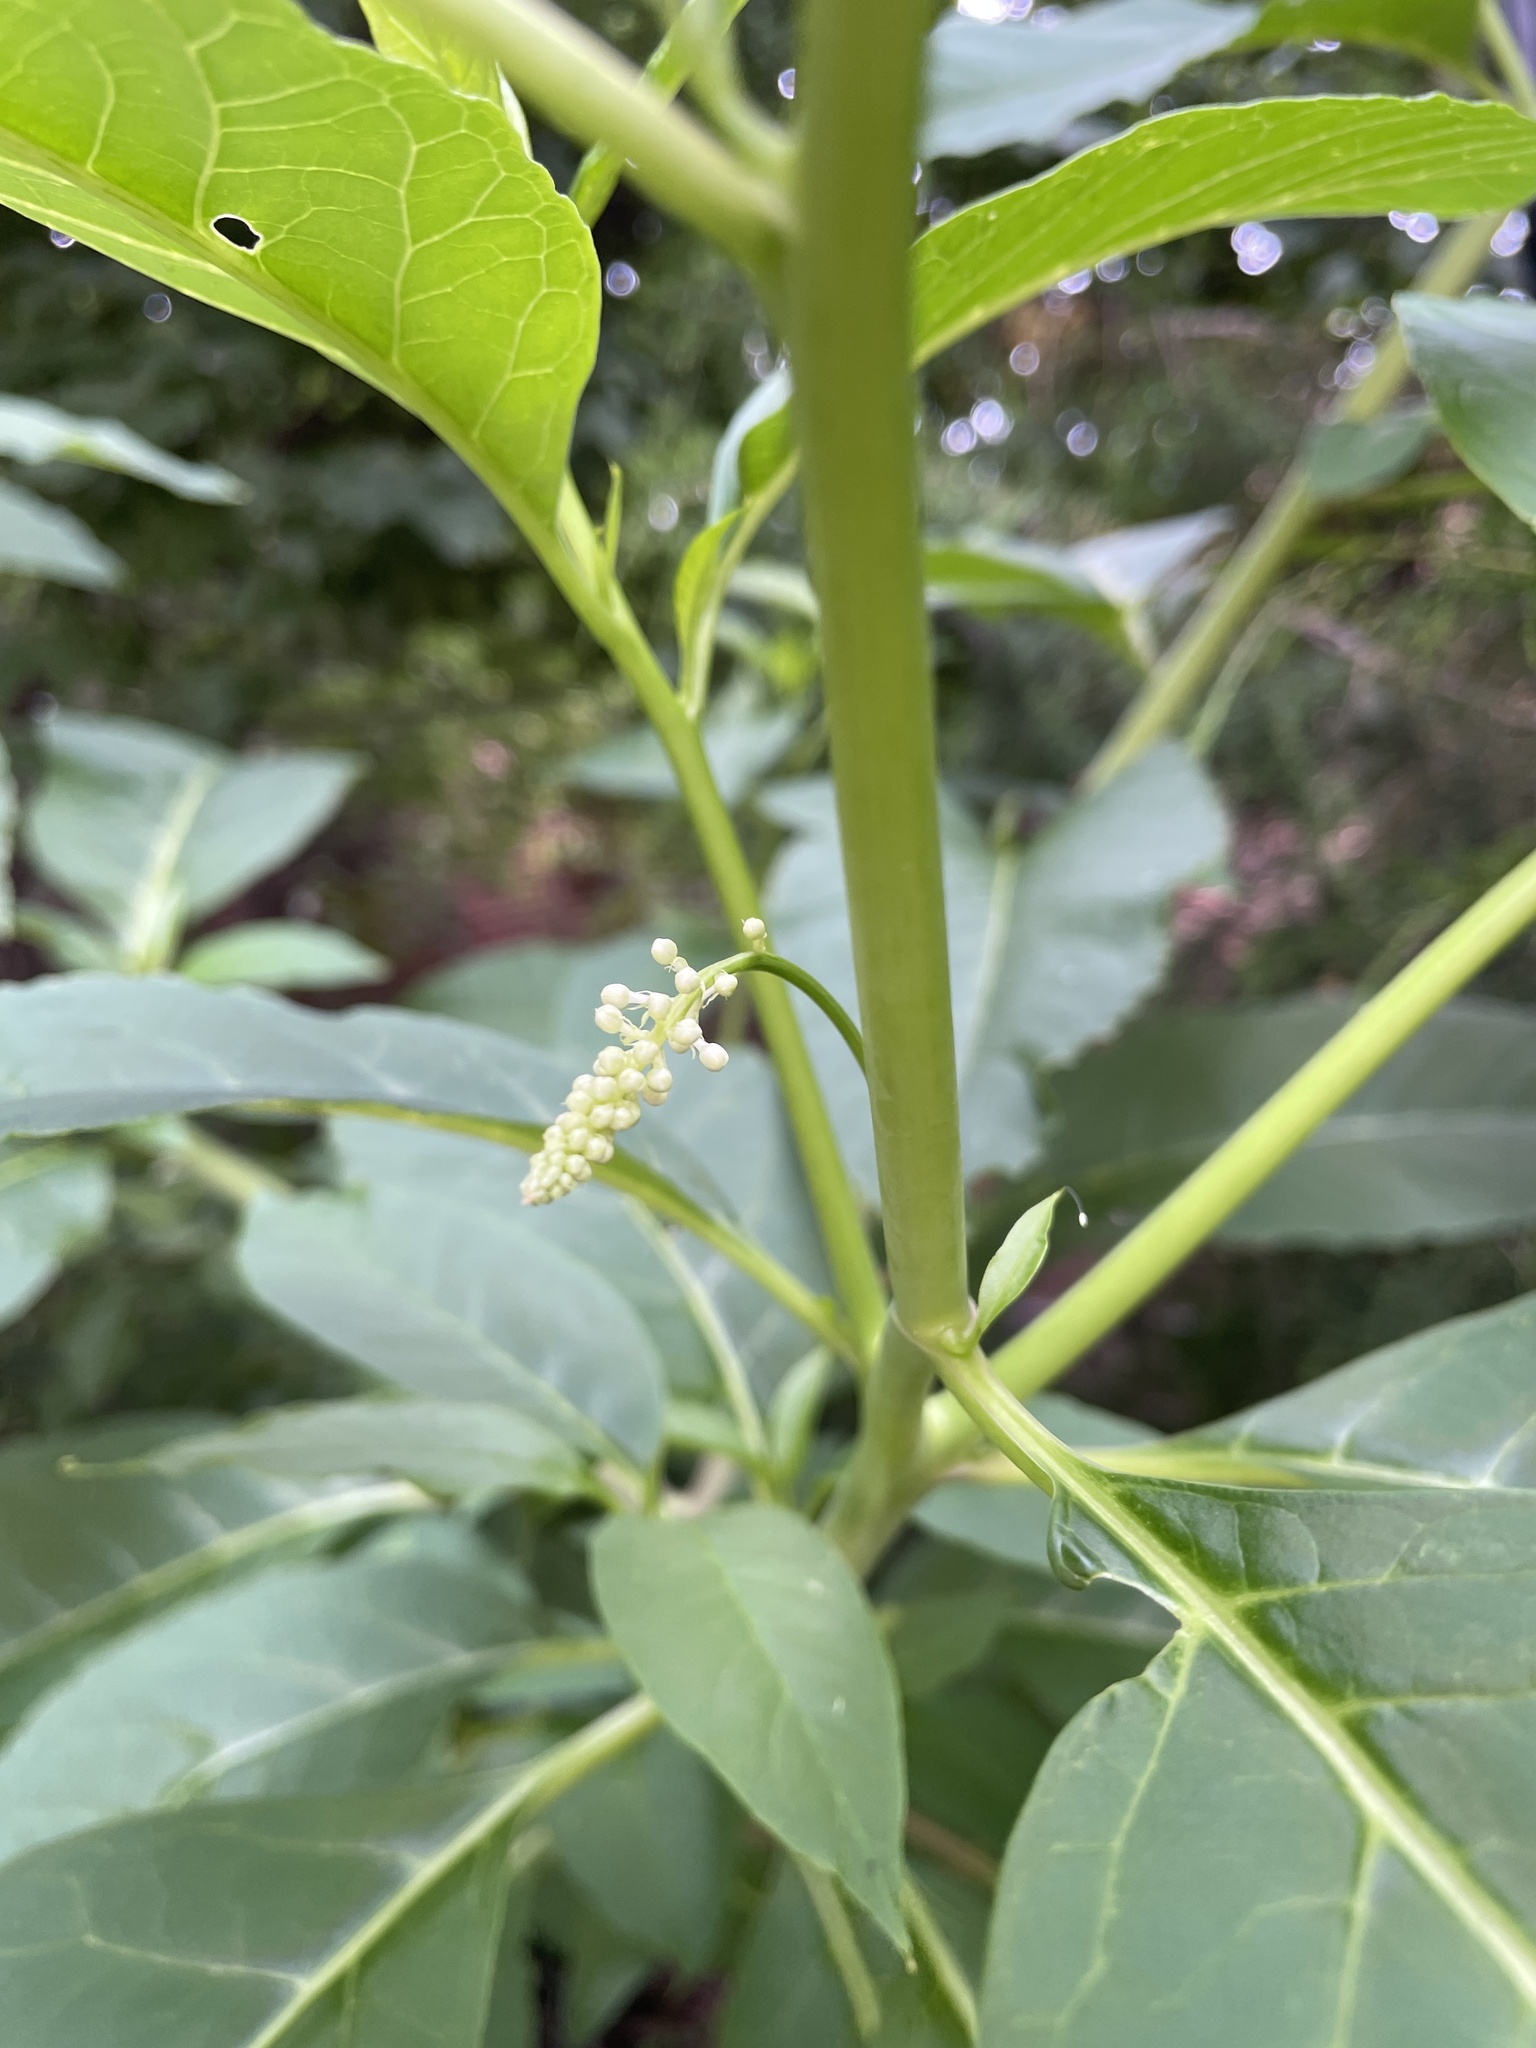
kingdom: Plantae
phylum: Tracheophyta
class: Magnoliopsida
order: Caryophyllales
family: Phytolaccaceae
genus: Phytolacca
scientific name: Phytolacca americana
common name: American pokeweed
